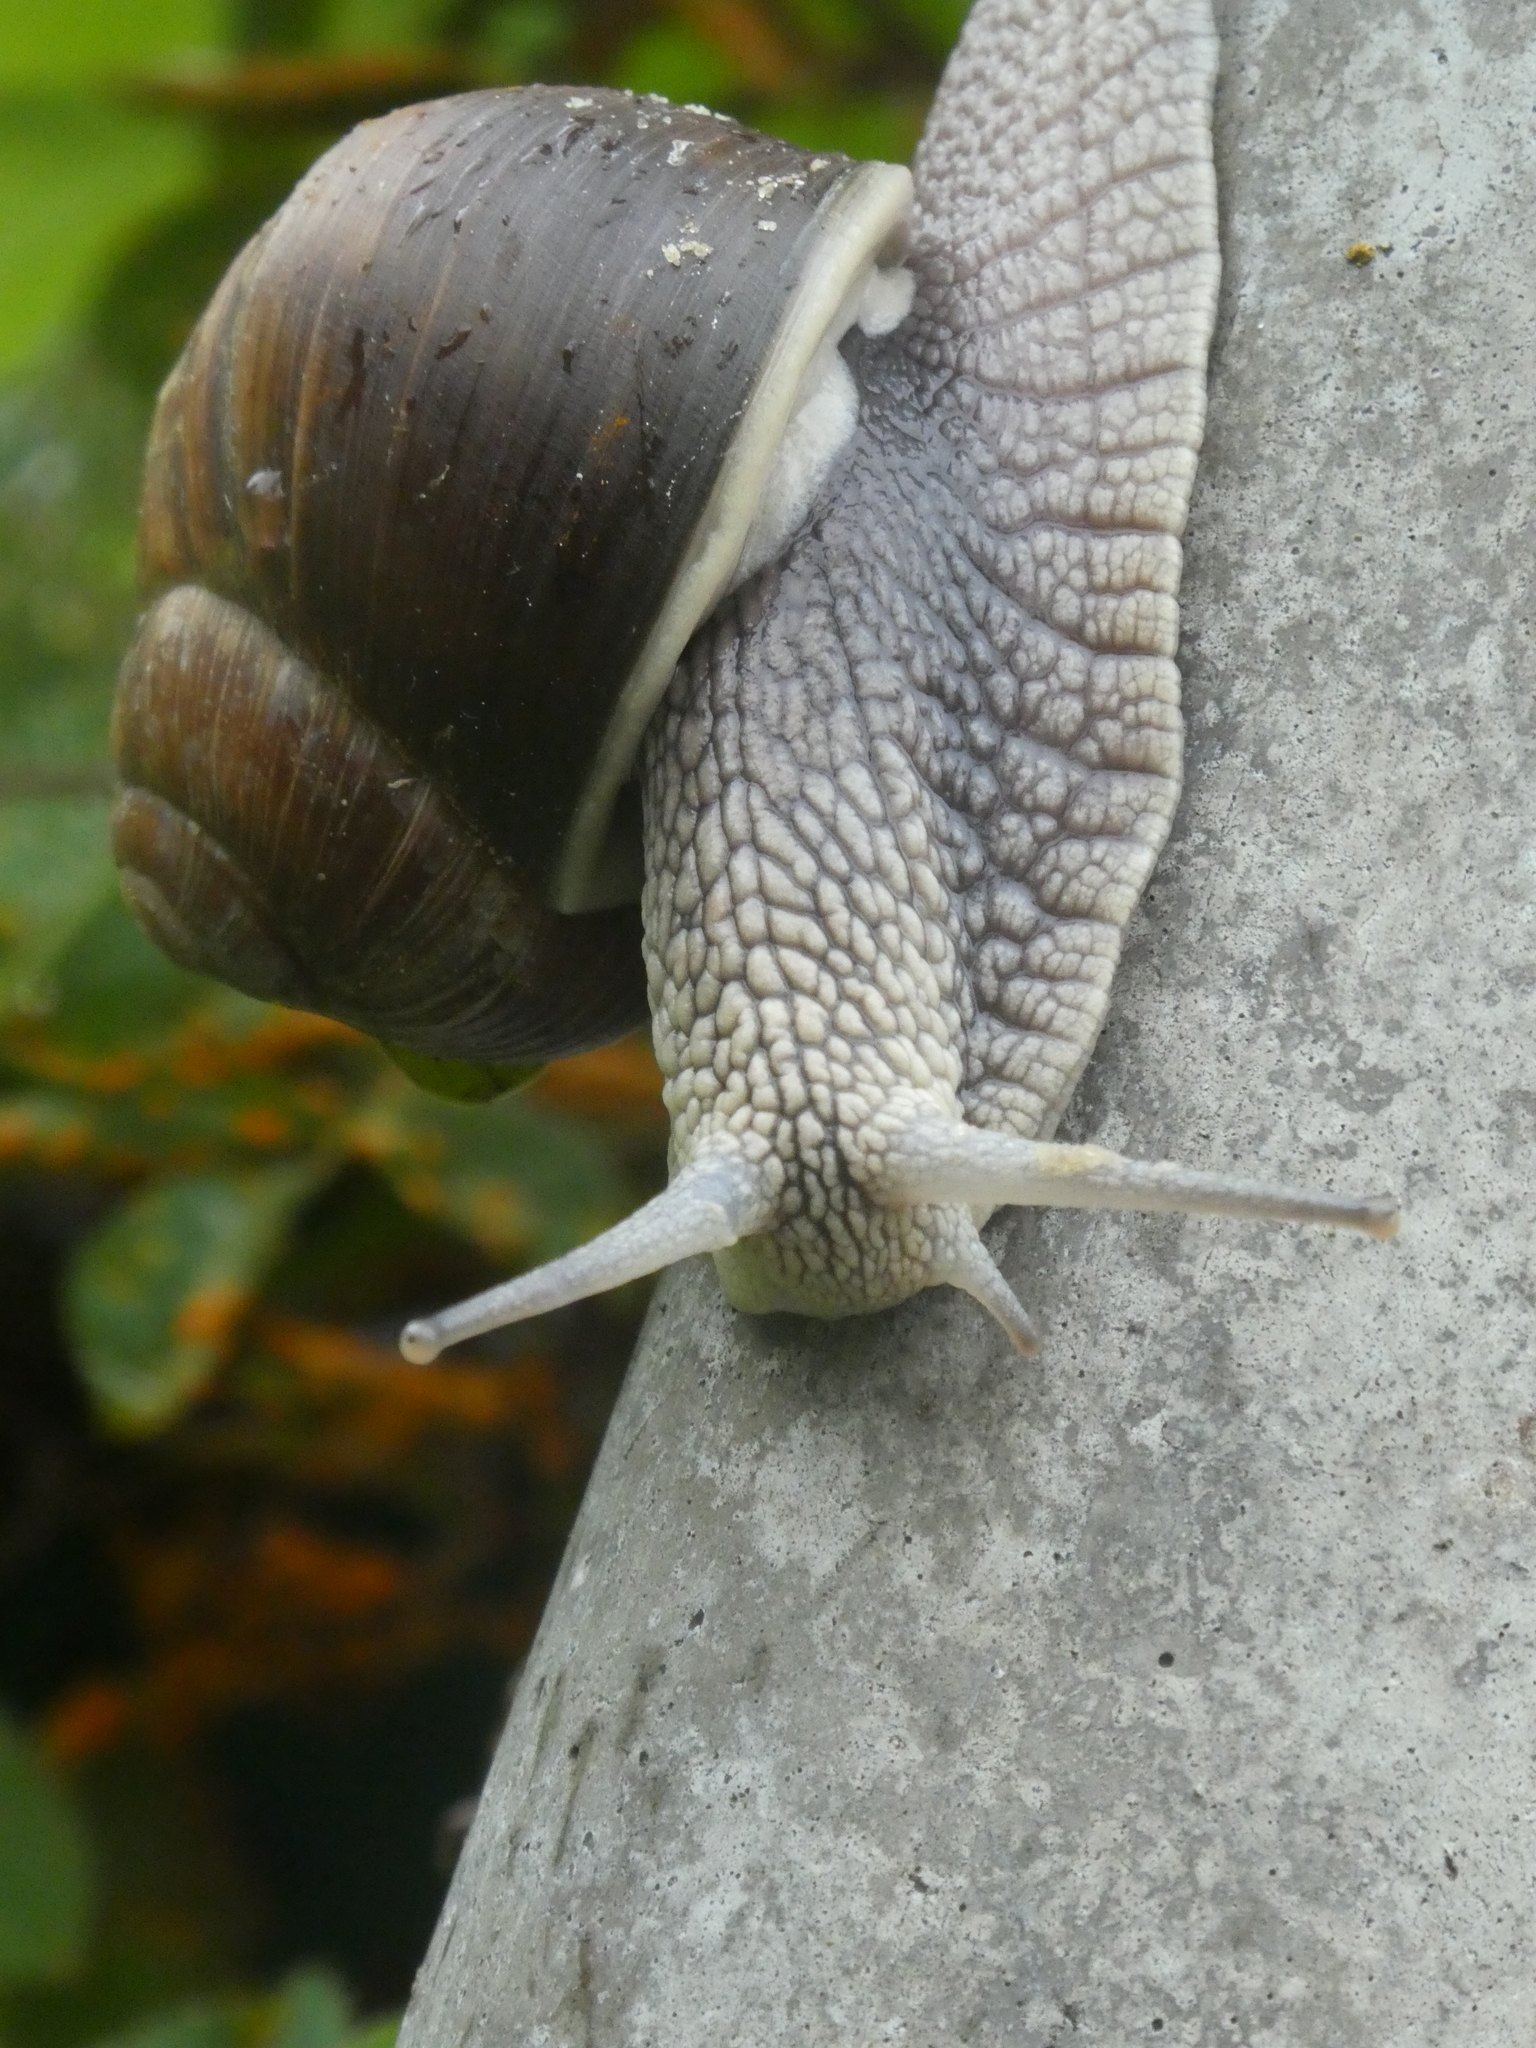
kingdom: Animalia
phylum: Mollusca
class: Gastropoda
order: Stylommatophora
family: Helicidae
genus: Helix
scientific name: Helix pomatia
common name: Roman snail
